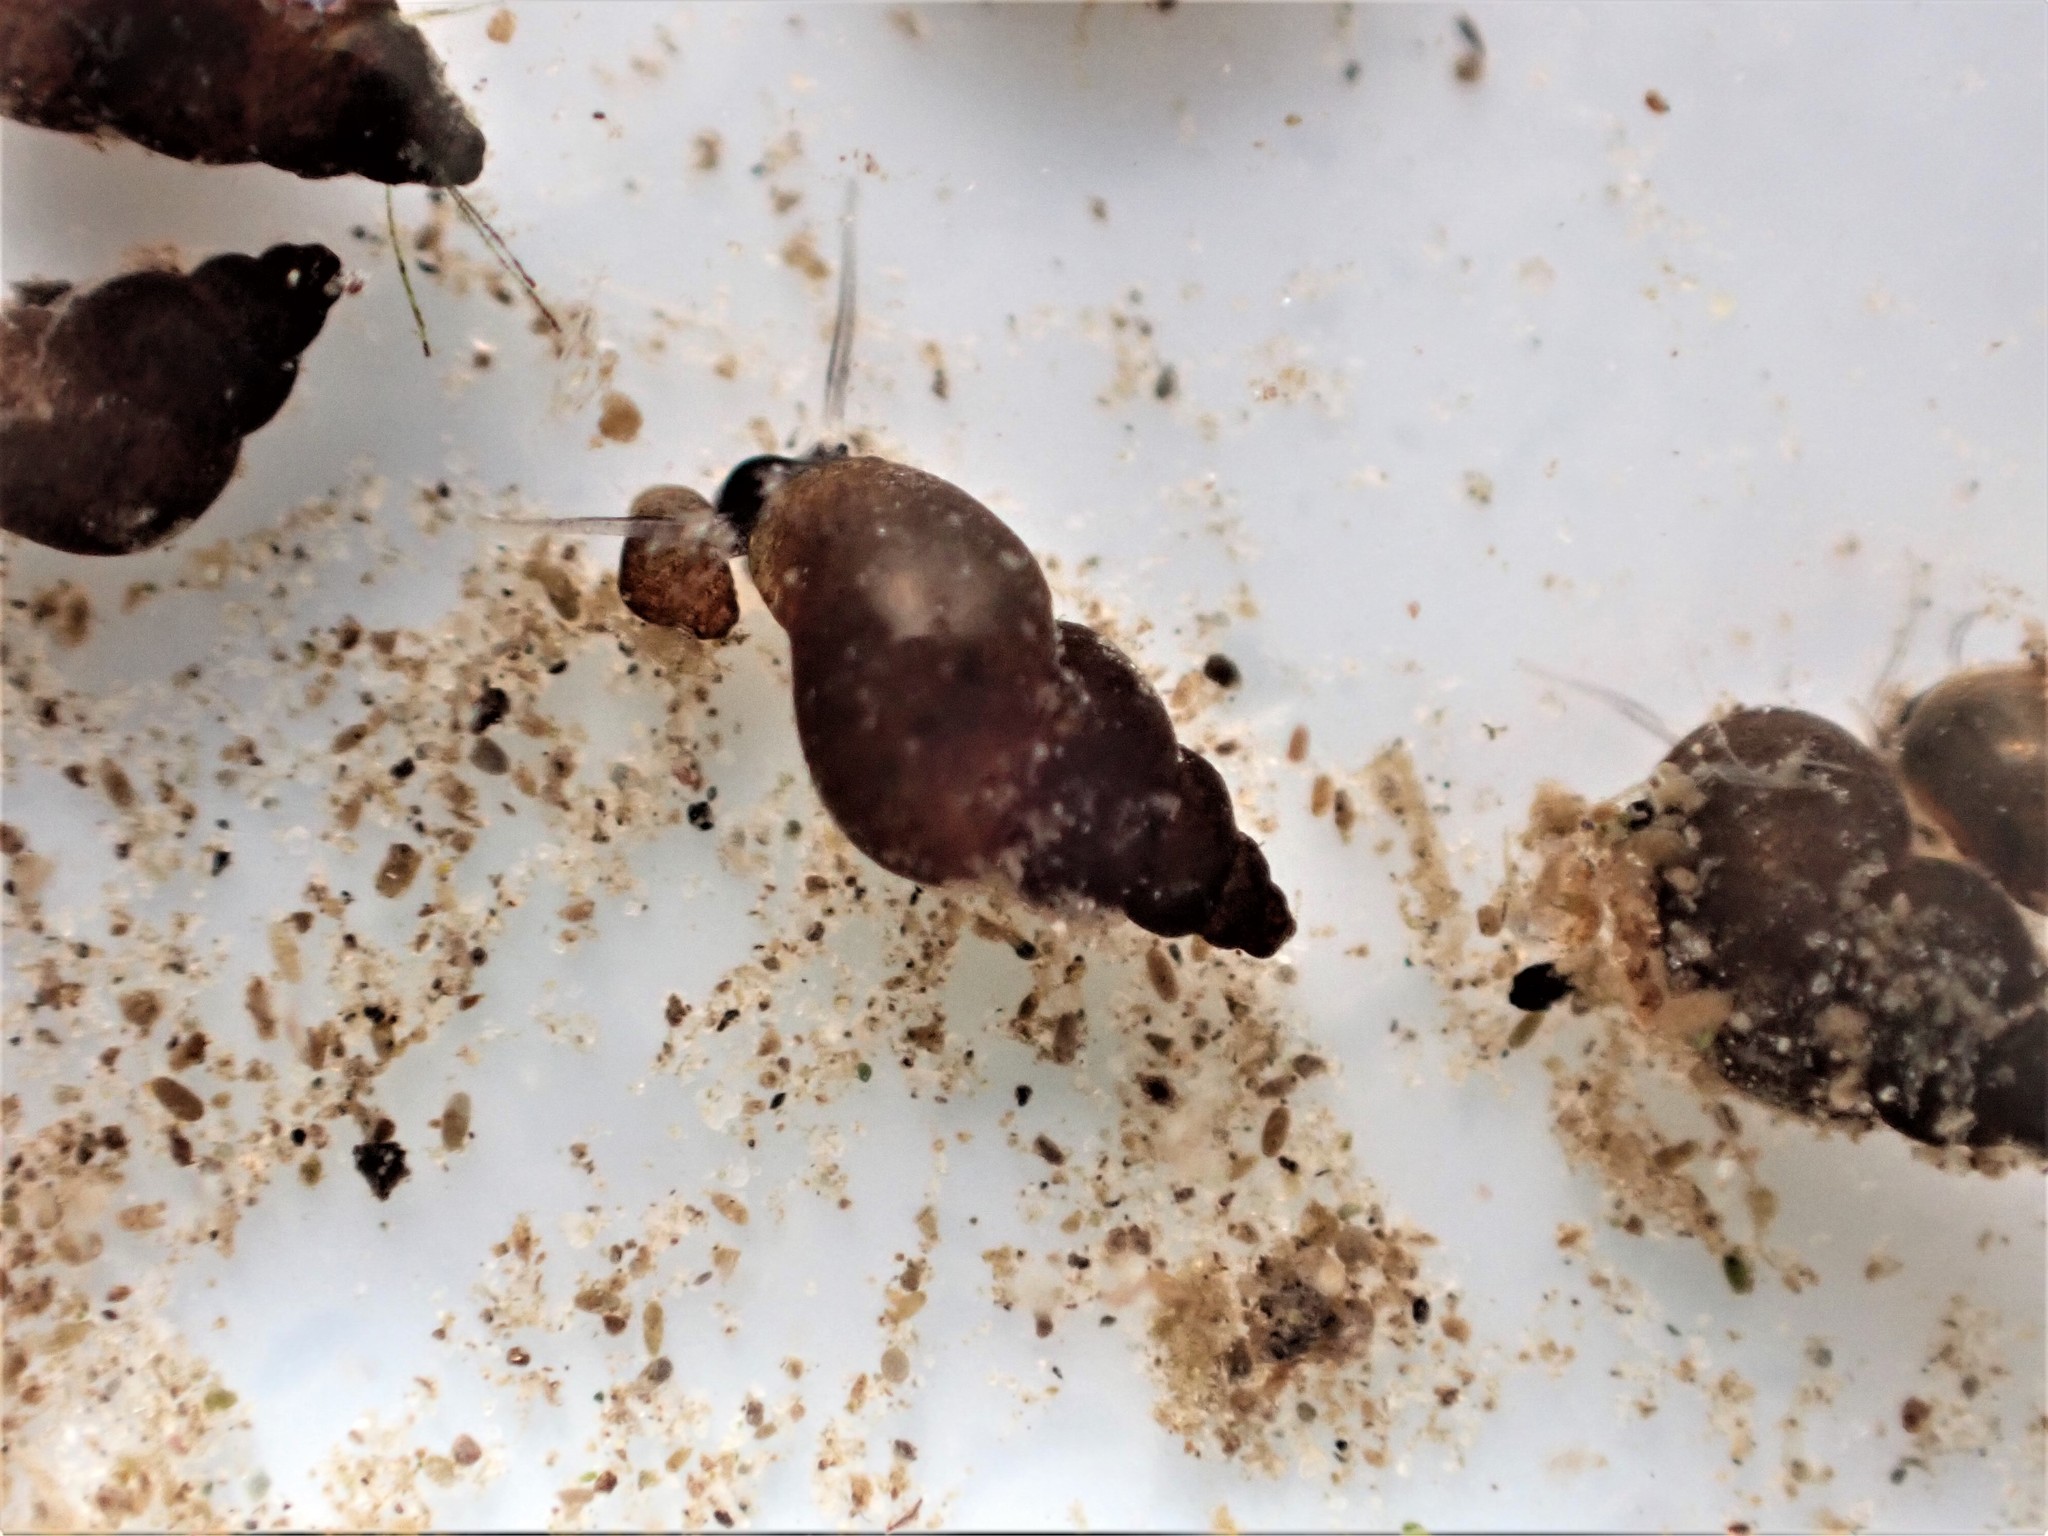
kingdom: Animalia
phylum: Mollusca
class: Gastropoda
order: Littorinimorpha
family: Tateidae
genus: Potamopyrgus
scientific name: Potamopyrgus antipodarum
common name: Jenkins' spire snail
